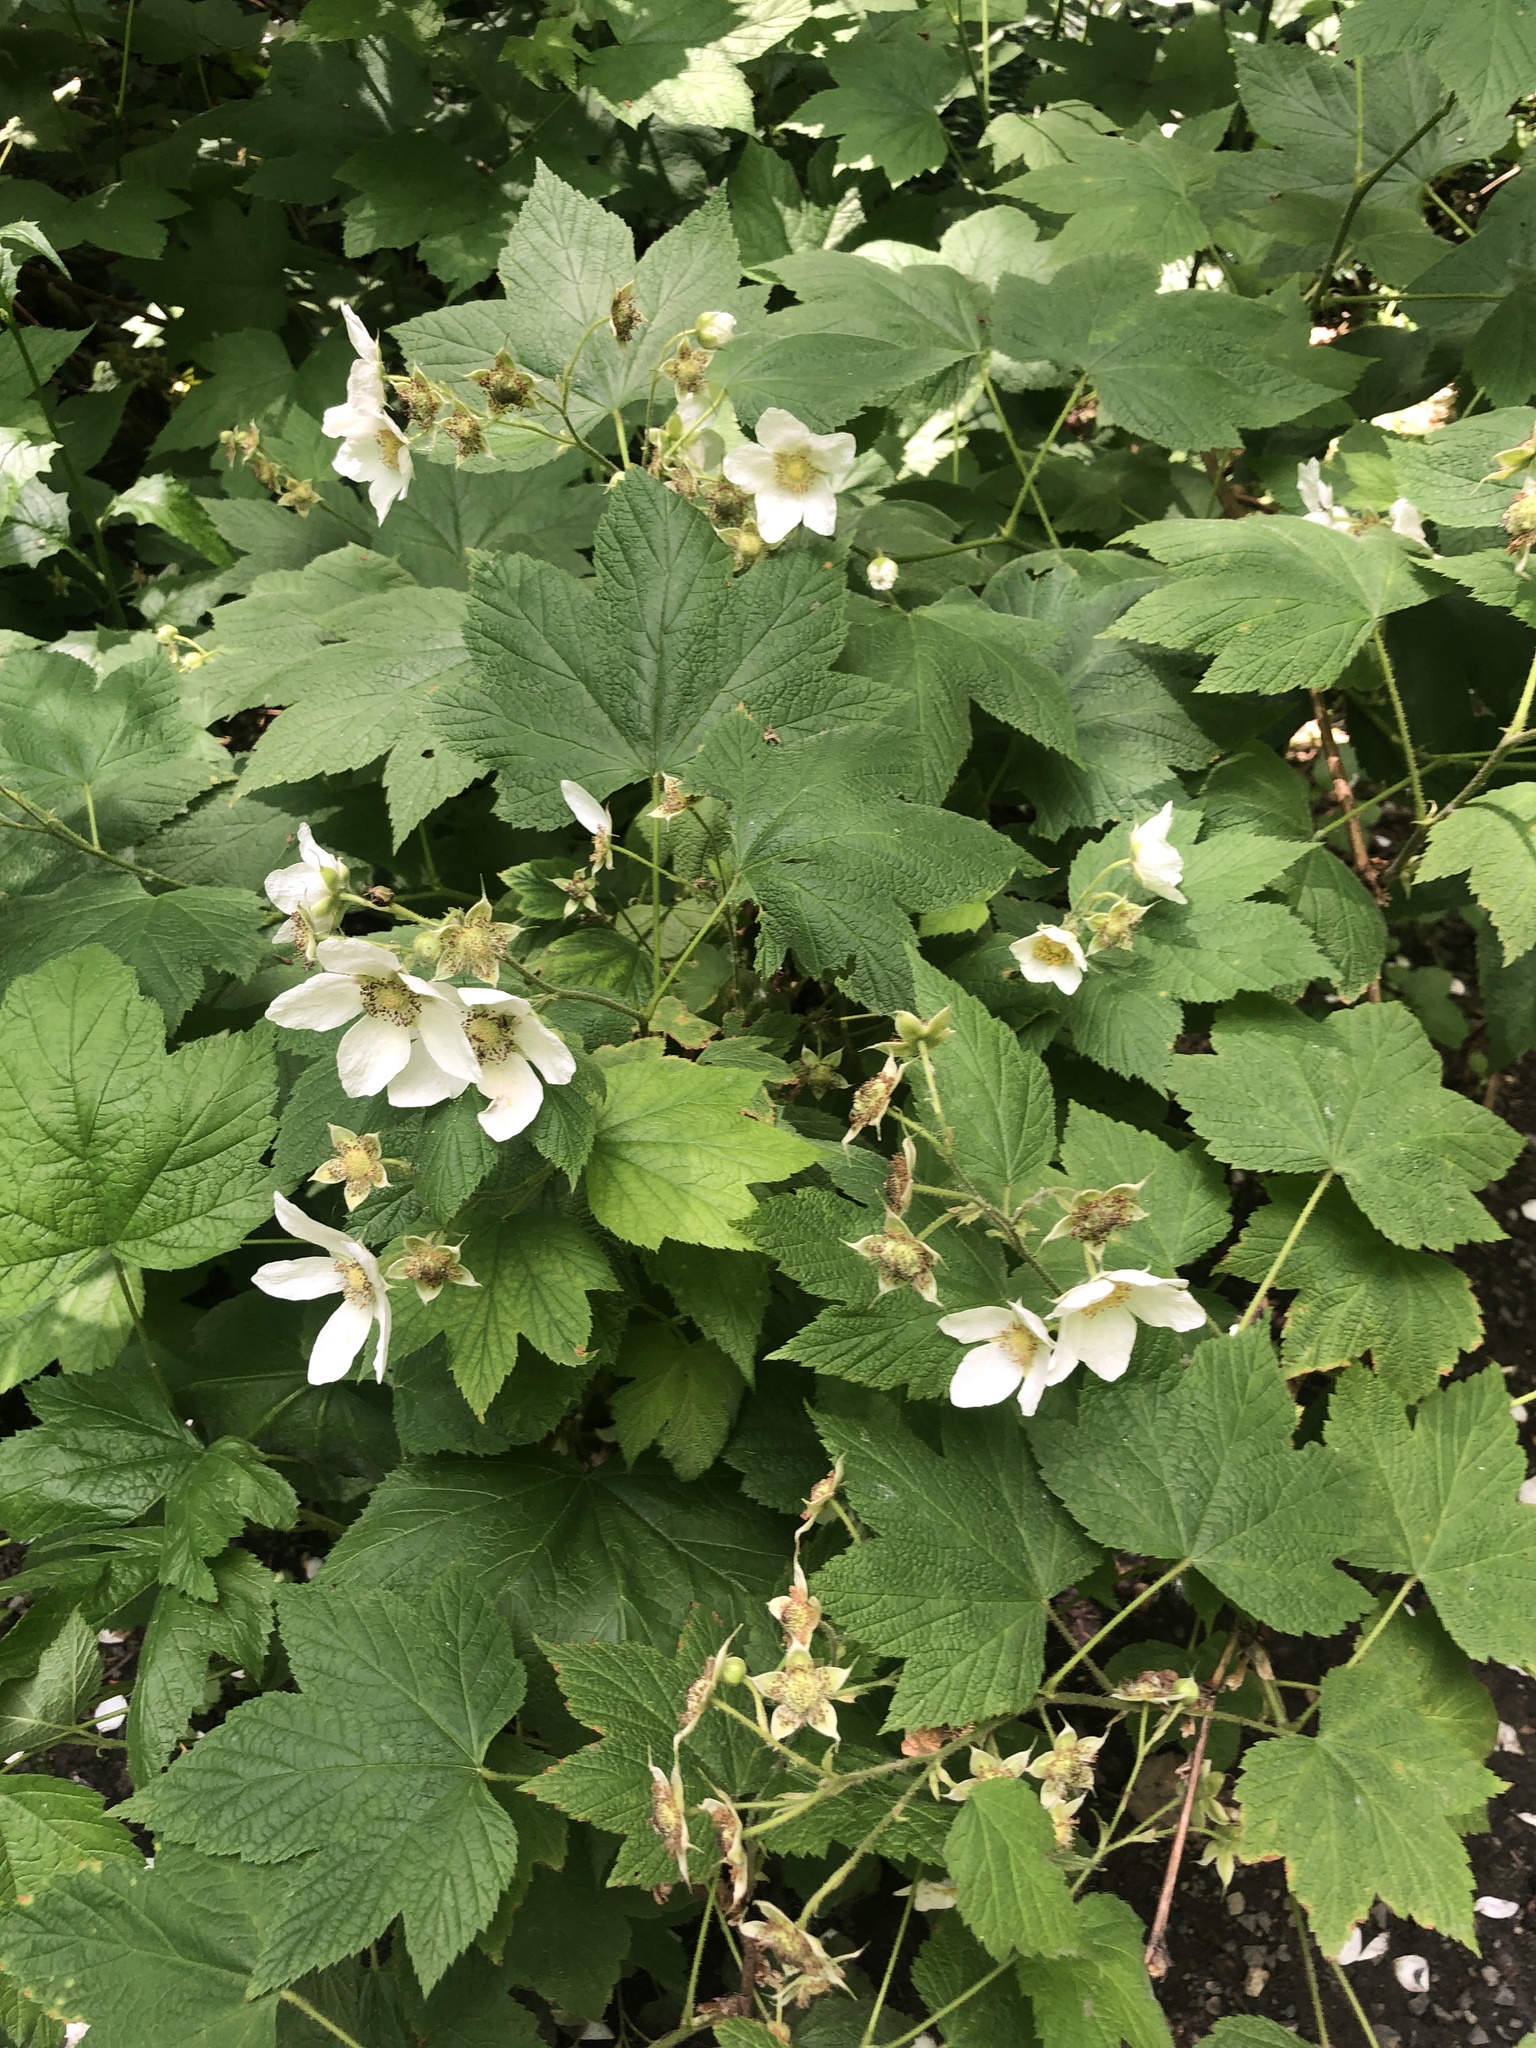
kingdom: Plantae
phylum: Tracheophyta
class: Magnoliopsida
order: Rosales
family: Rosaceae
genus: Rubus
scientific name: Rubus parviflorus
